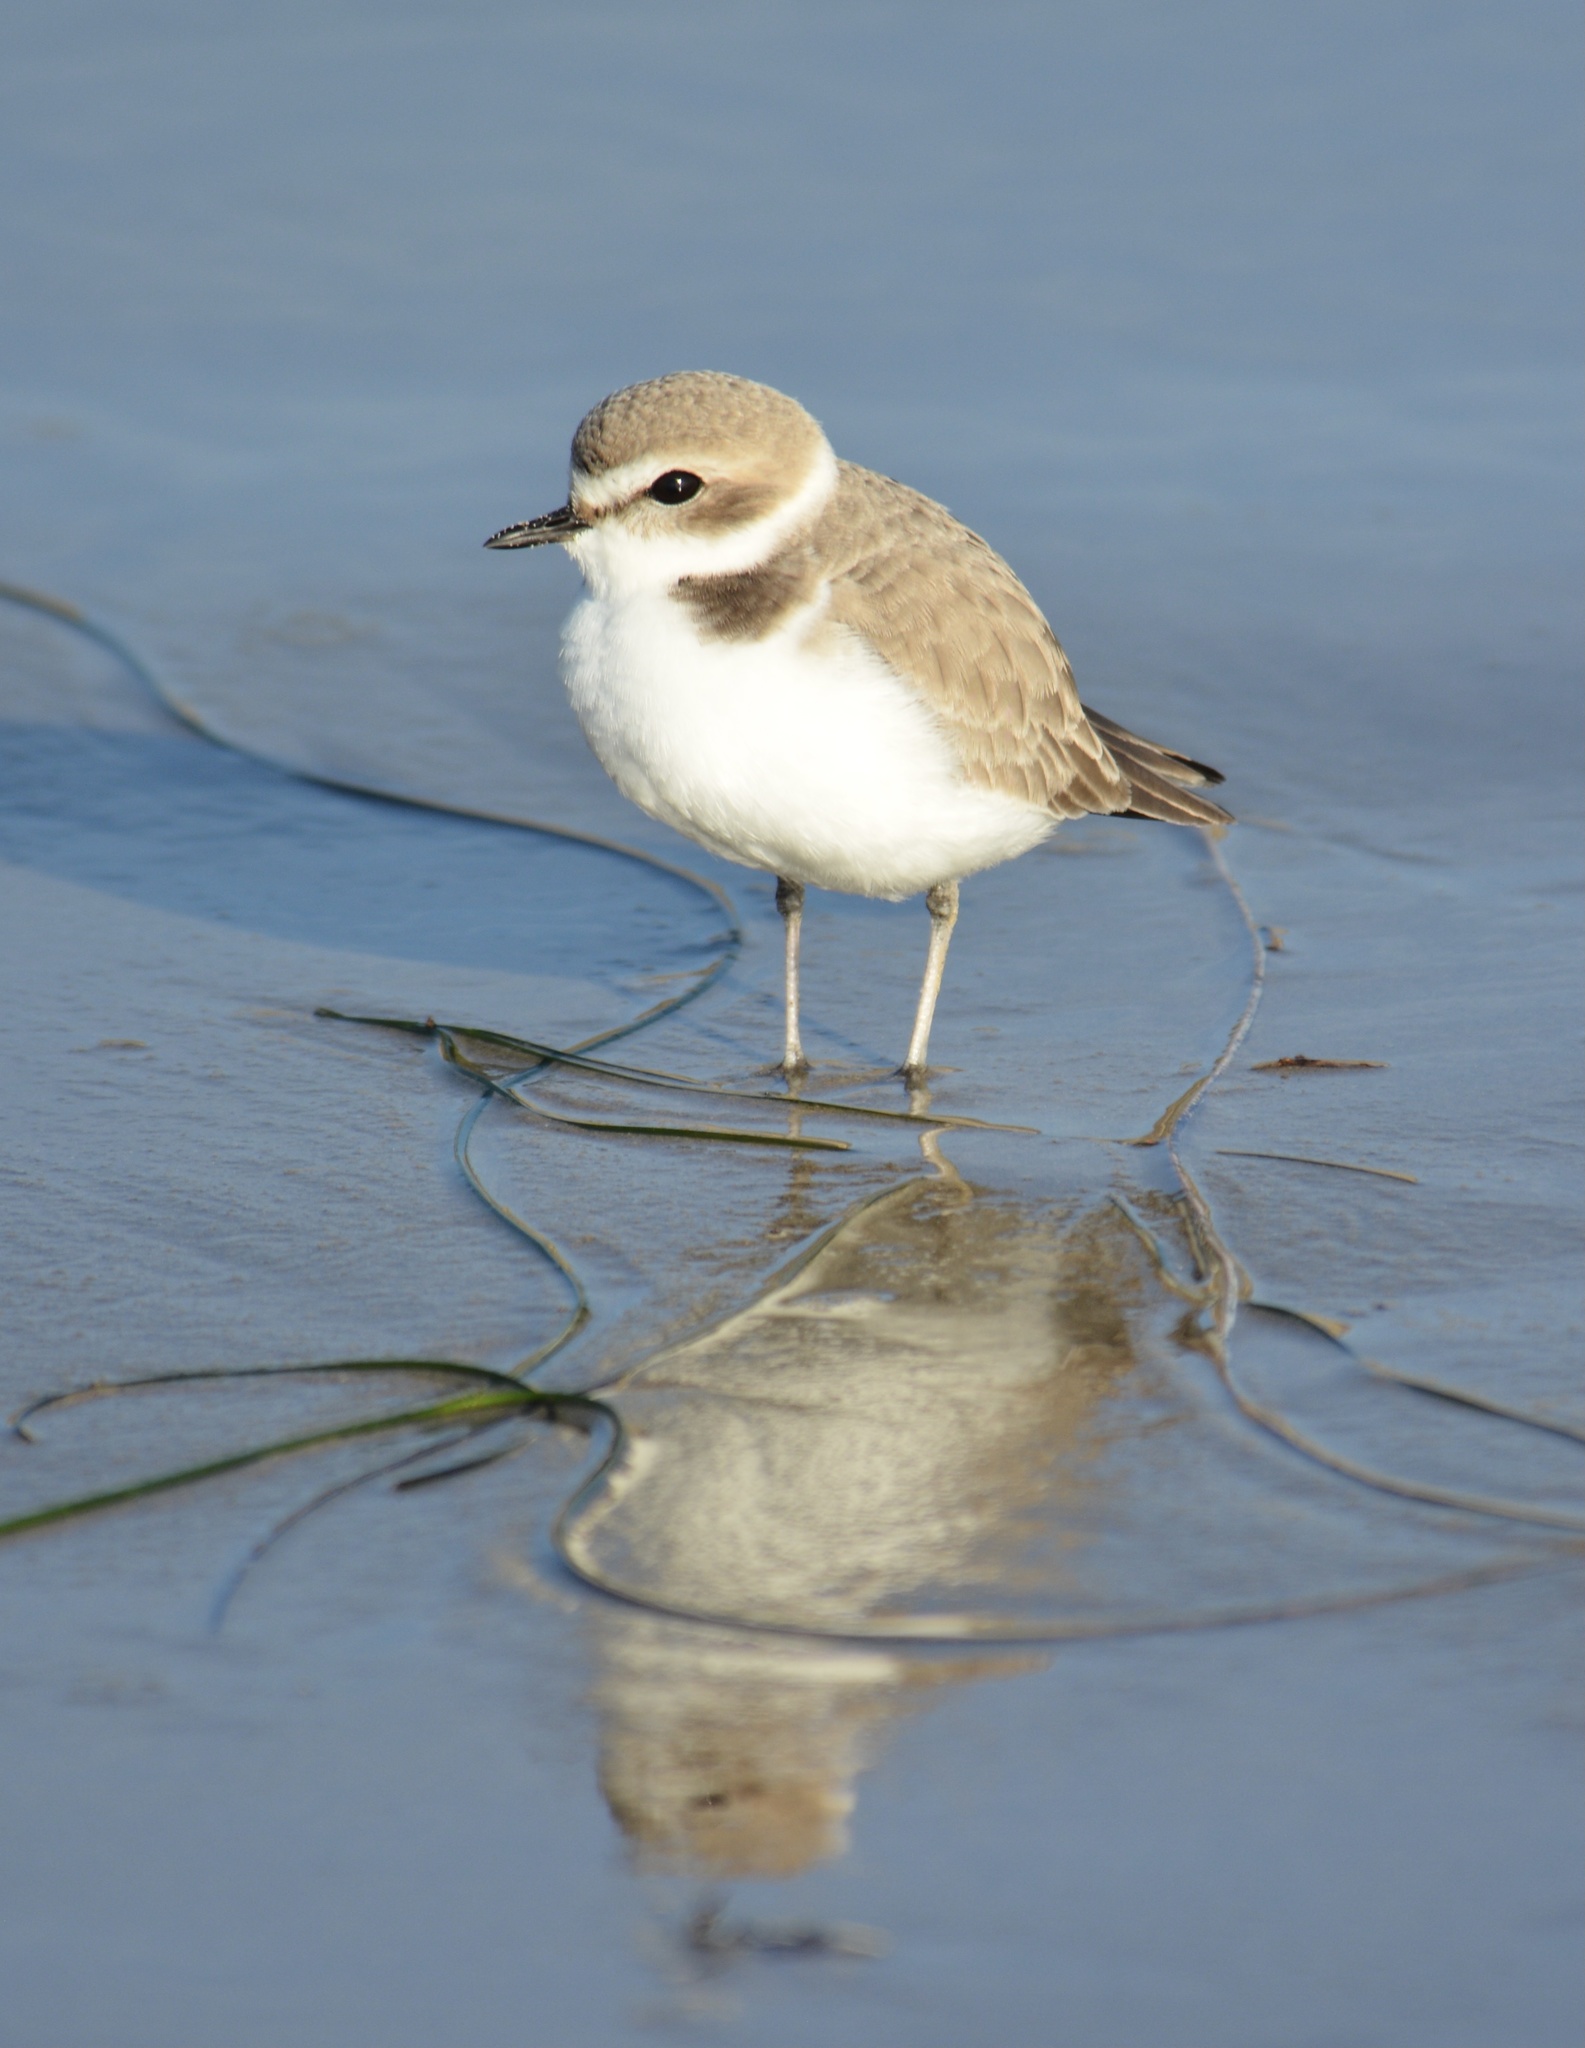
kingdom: Animalia
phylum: Chordata
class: Aves
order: Charadriiformes
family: Charadriidae
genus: Anarhynchus
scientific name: Anarhynchus
